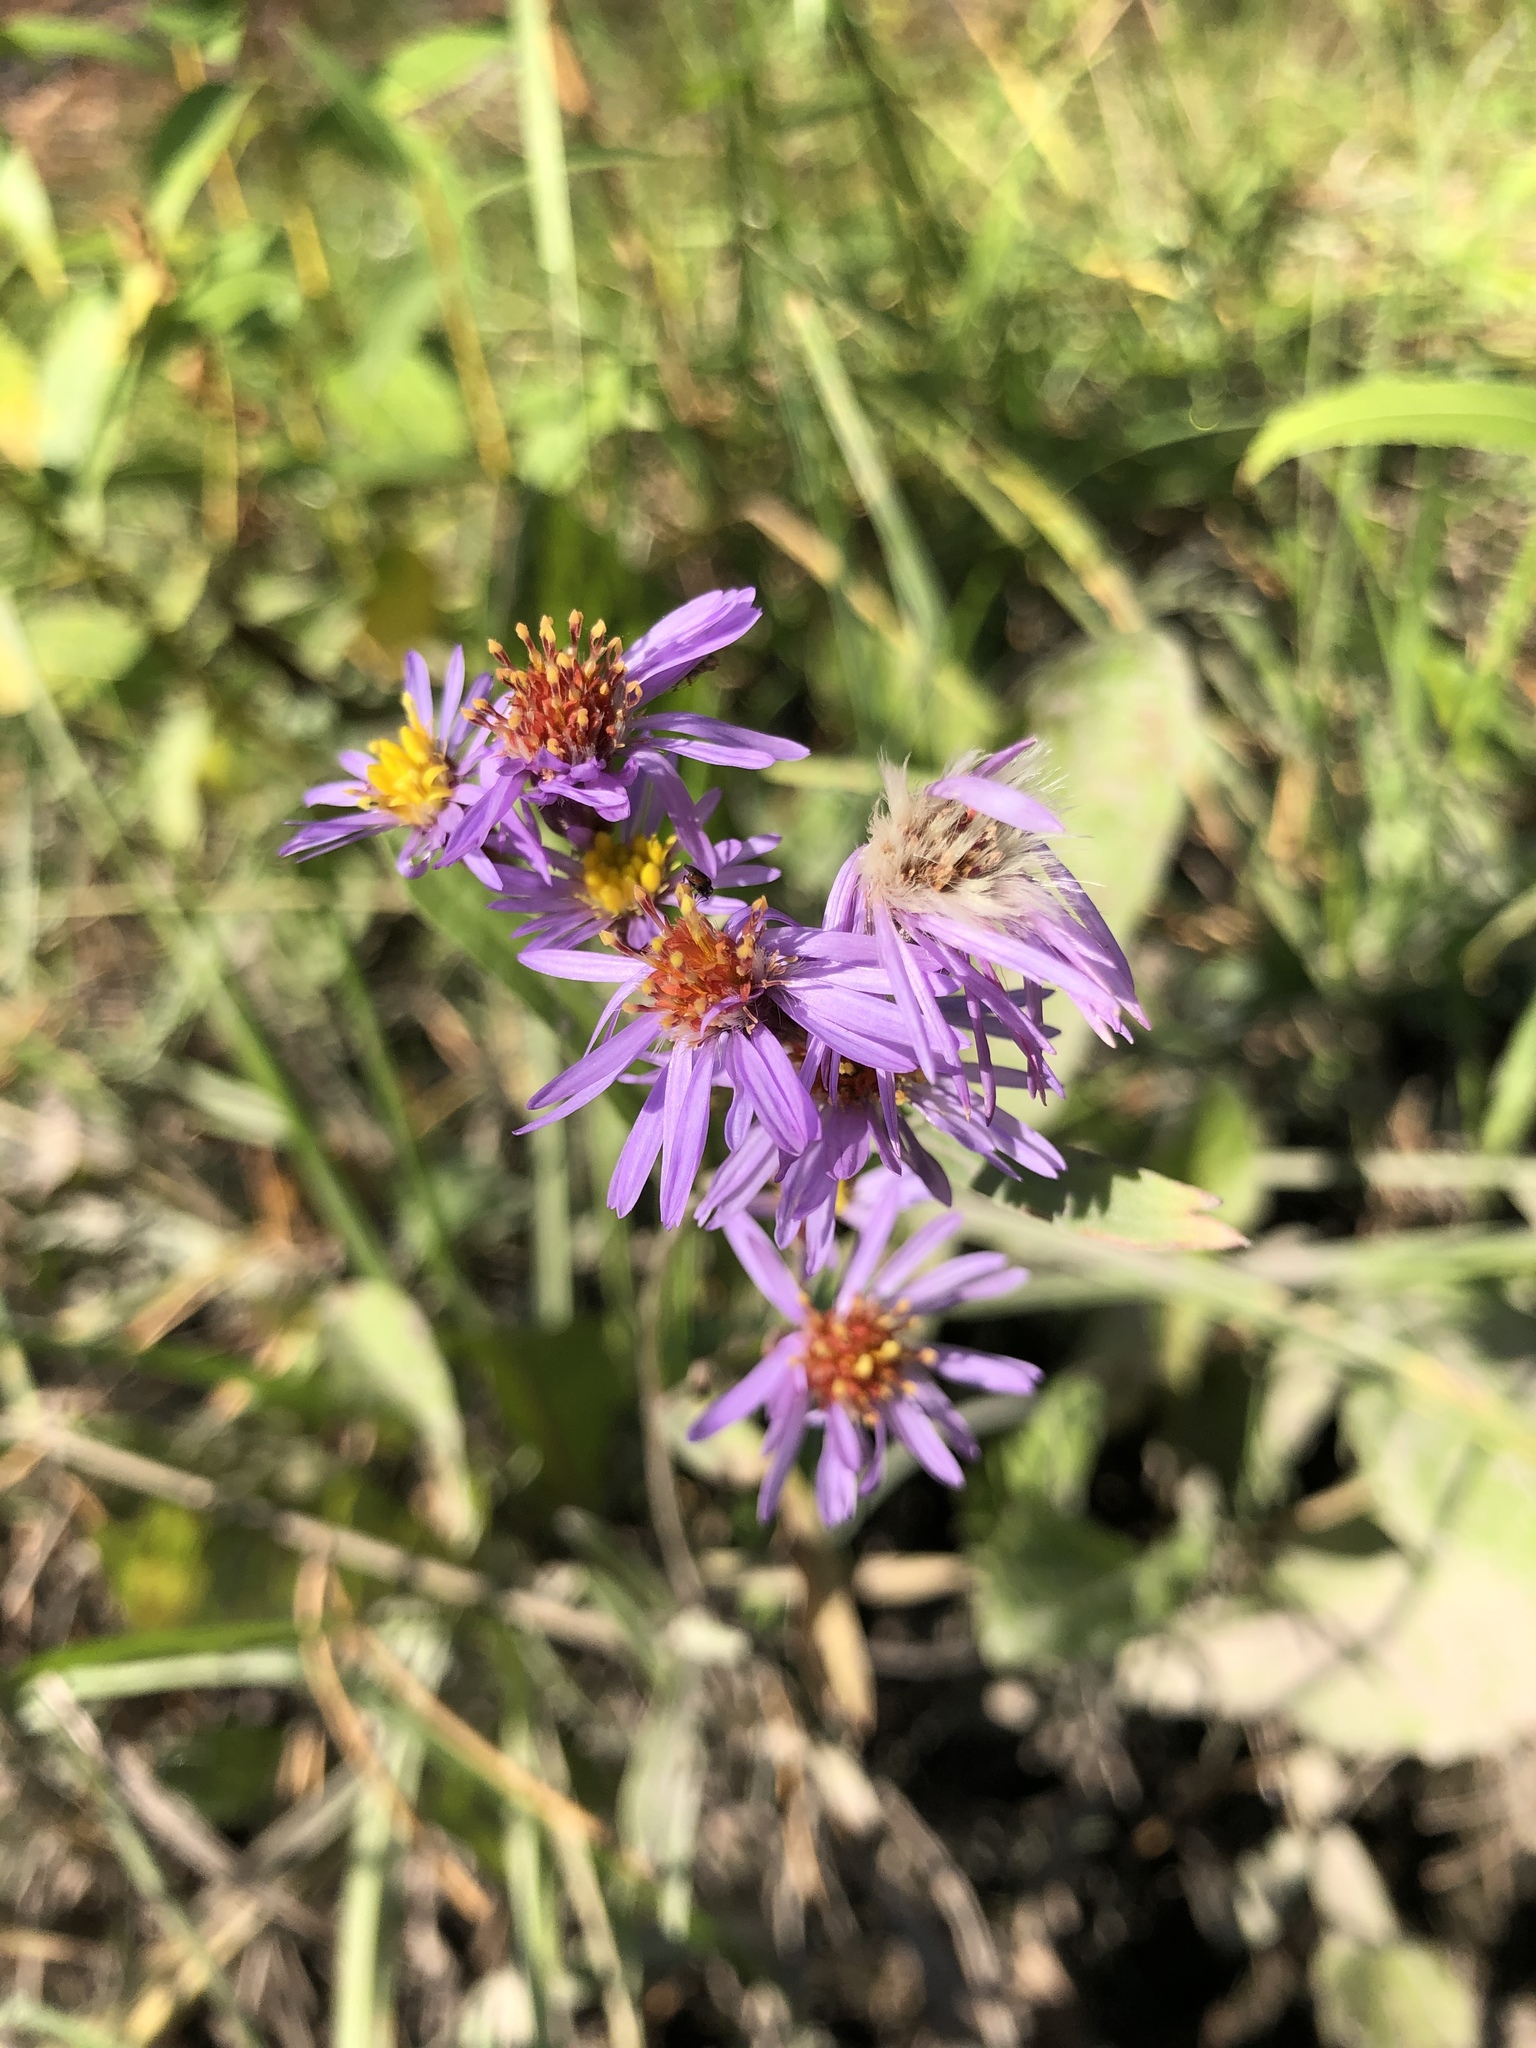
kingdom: Plantae
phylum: Tracheophyta
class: Magnoliopsida
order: Asterales
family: Asteraceae
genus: Tripolium
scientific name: Tripolium pannonicum
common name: Sea aster
